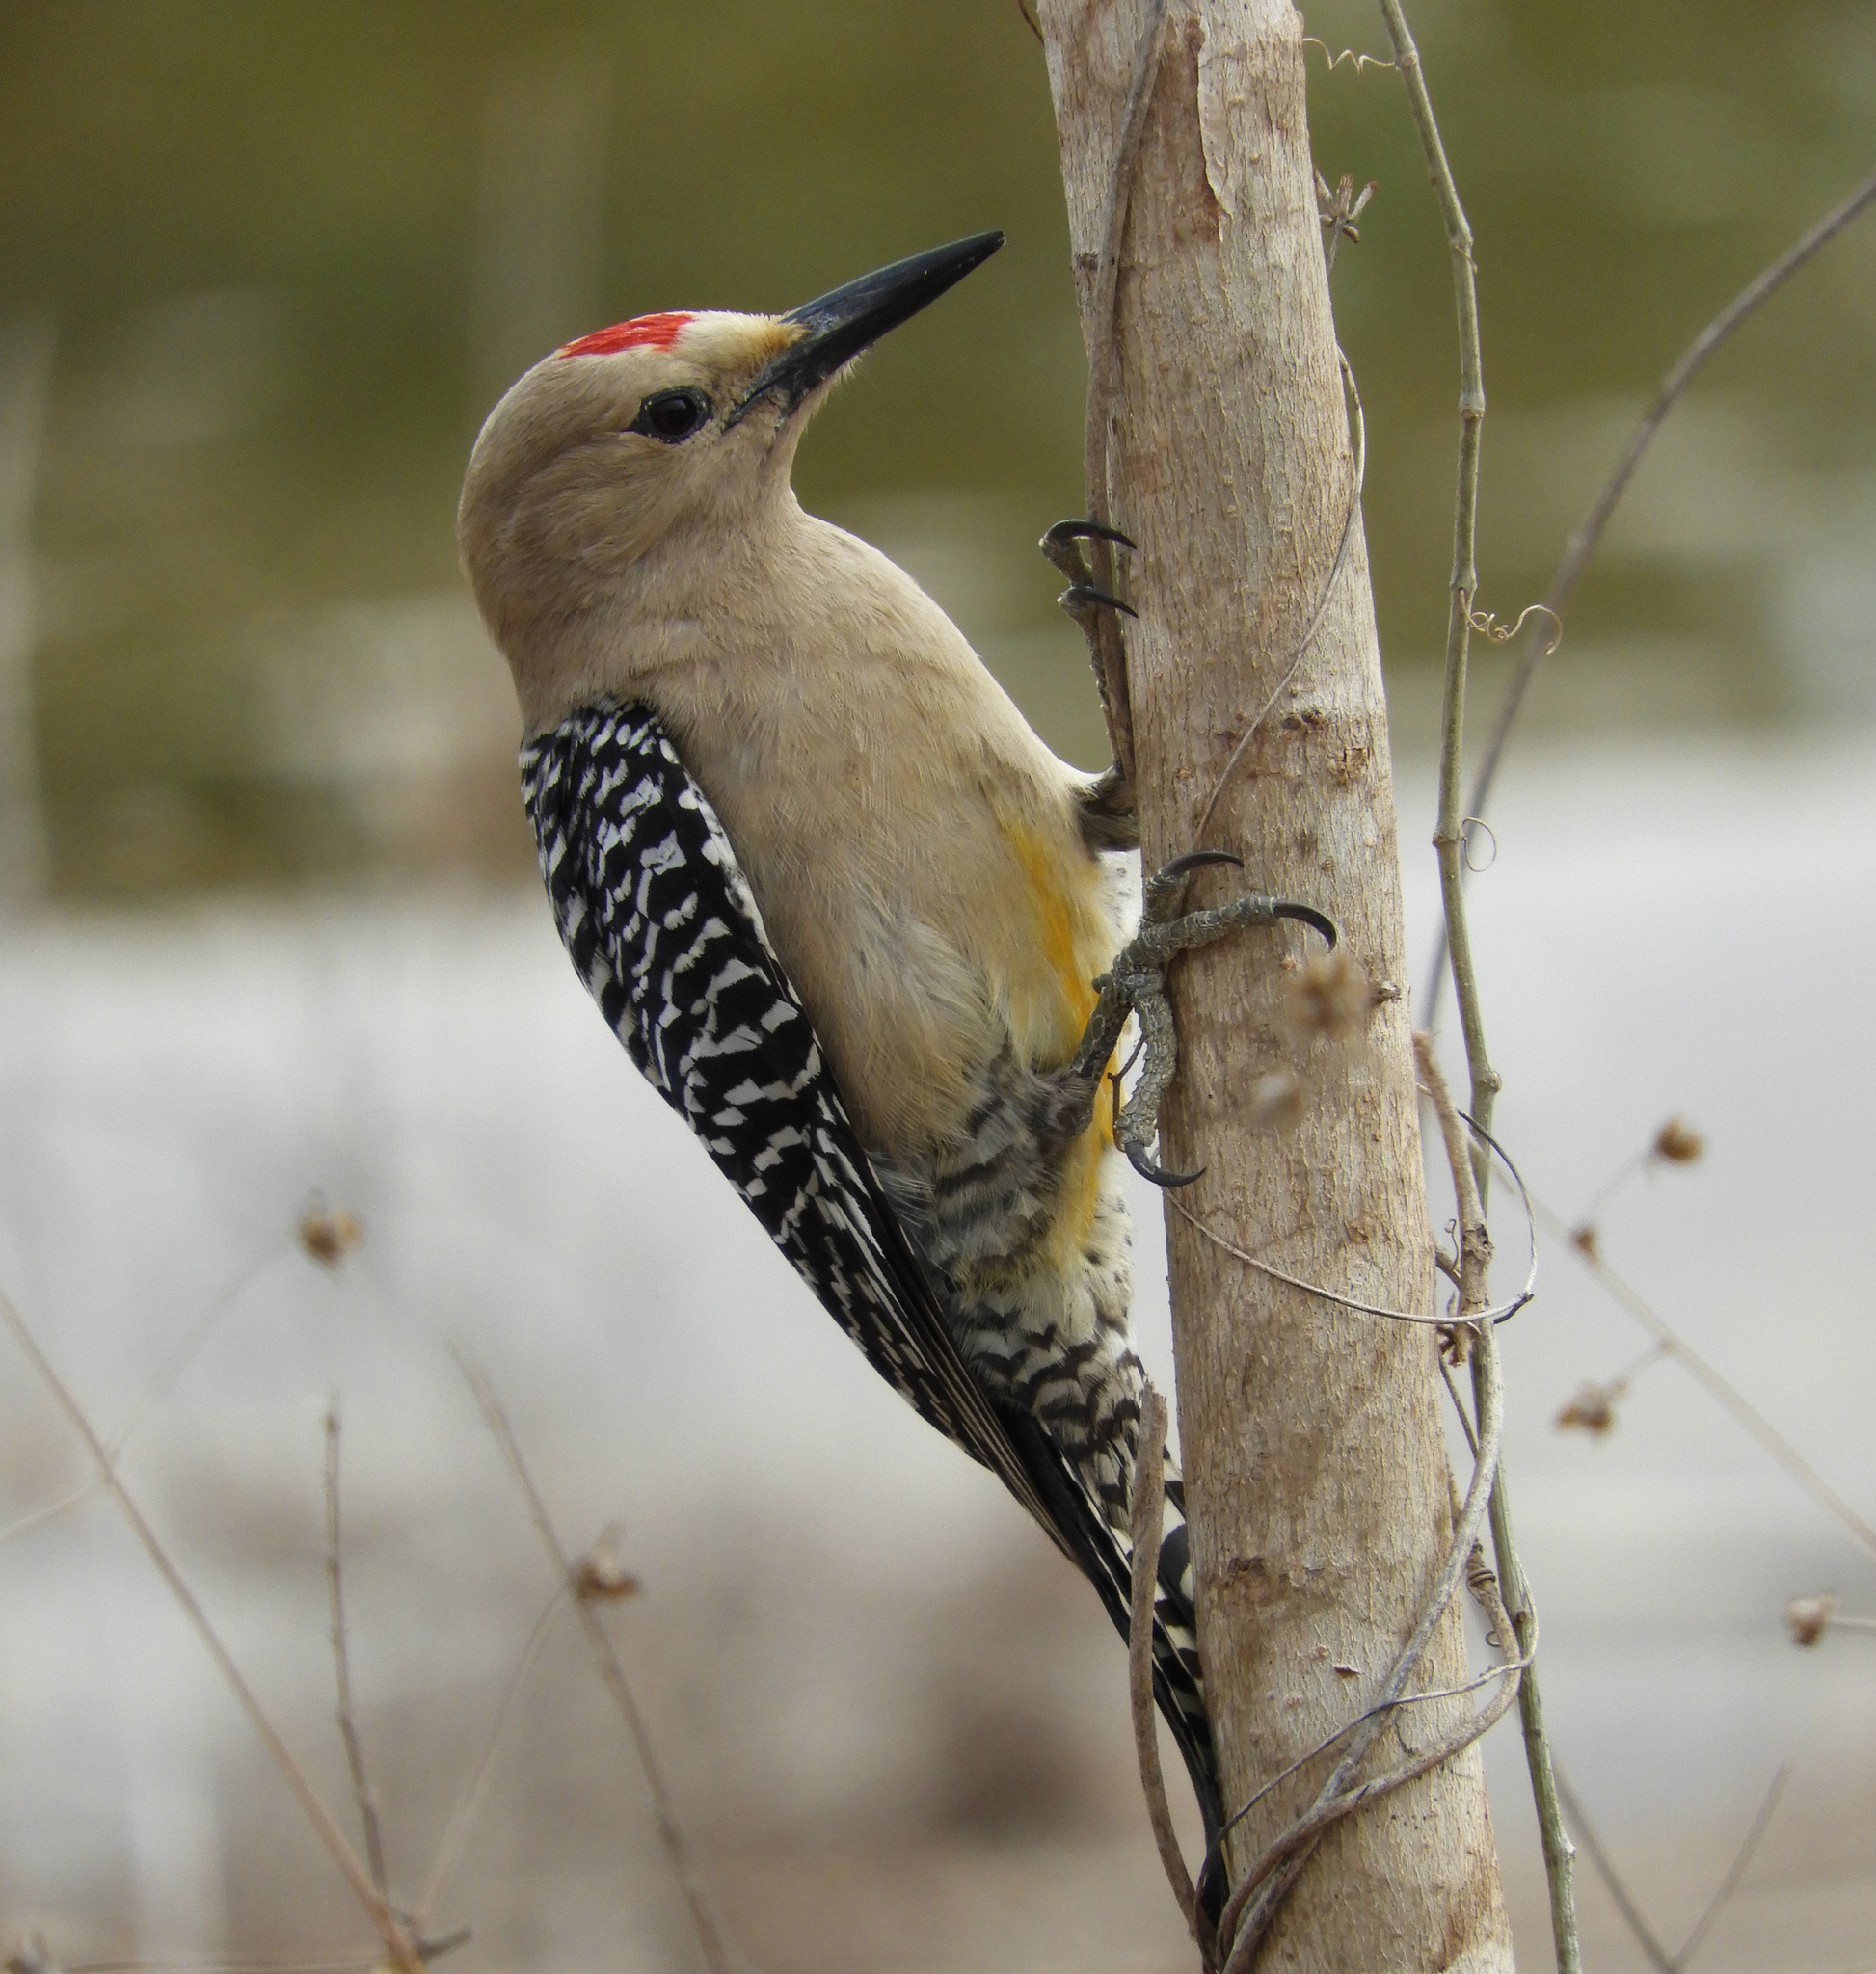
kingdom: Animalia
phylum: Chordata
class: Aves
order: Piciformes
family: Picidae
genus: Melanerpes
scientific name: Melanerpes uropygialis
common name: Gila woodpecker
